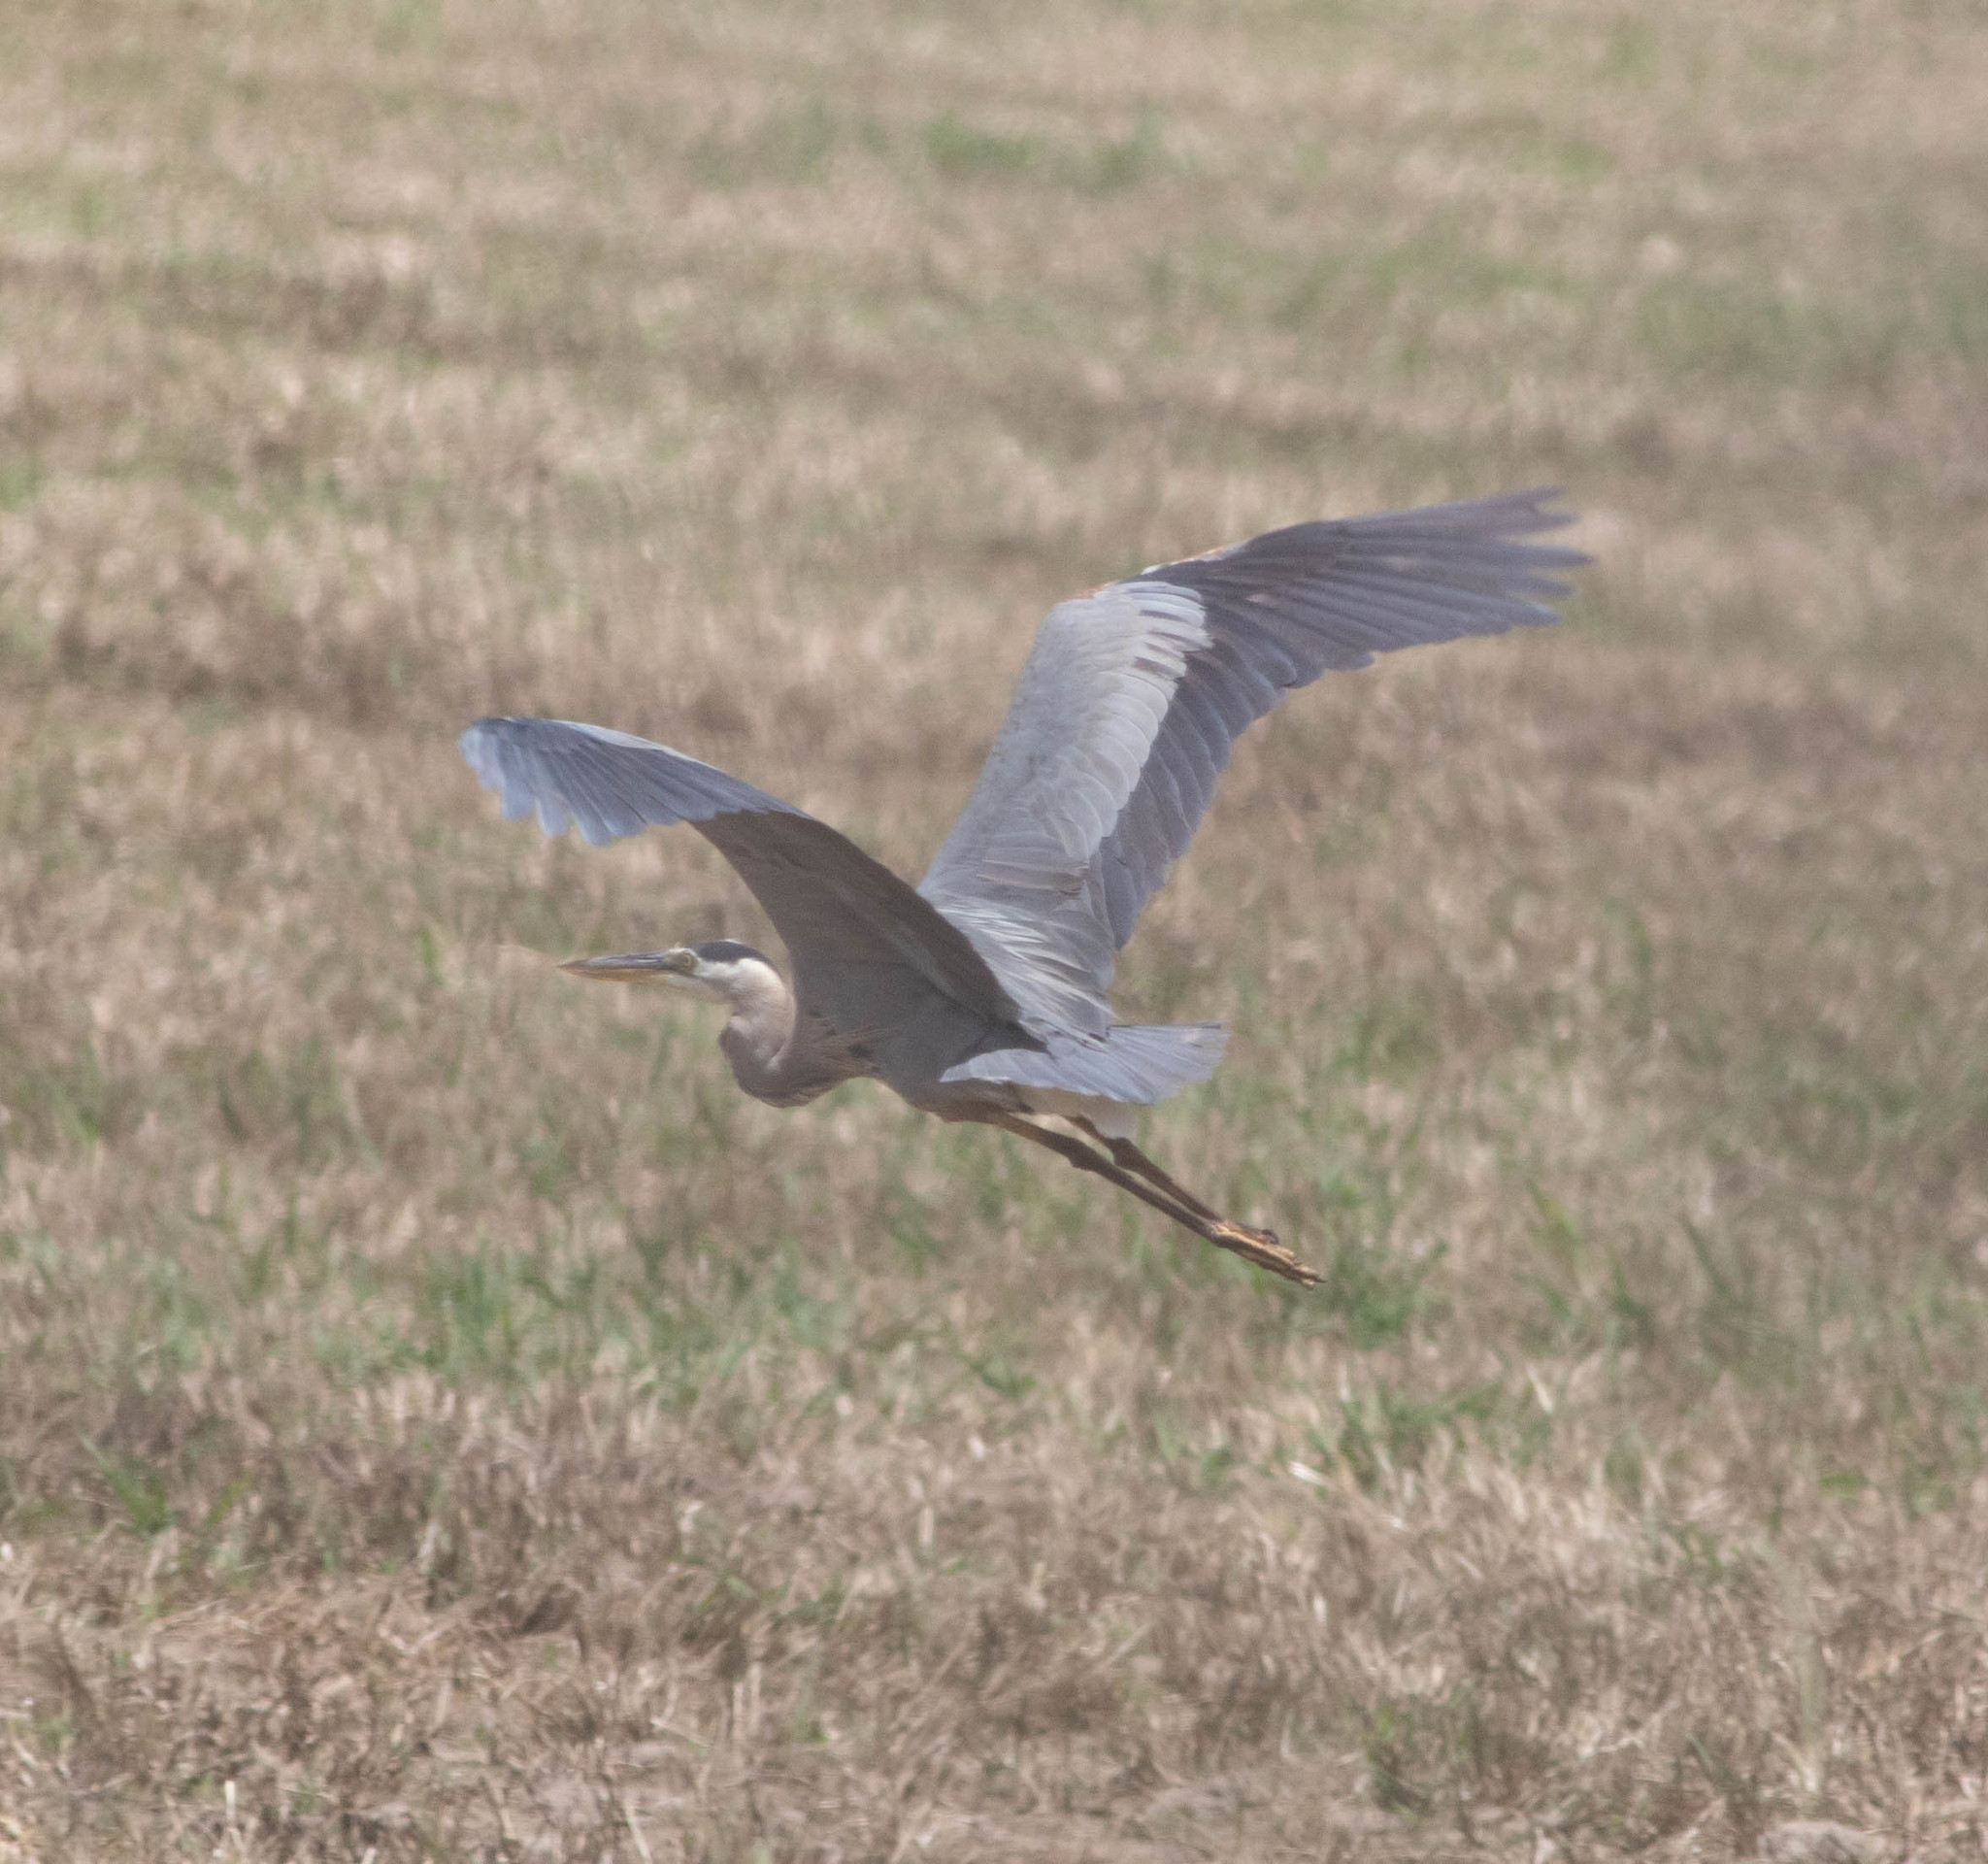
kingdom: Animalia
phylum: Chordata
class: Aves
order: Pelecaniformes
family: Ardeidae
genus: Ardea
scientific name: Ardea herodias
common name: Great blue heron
